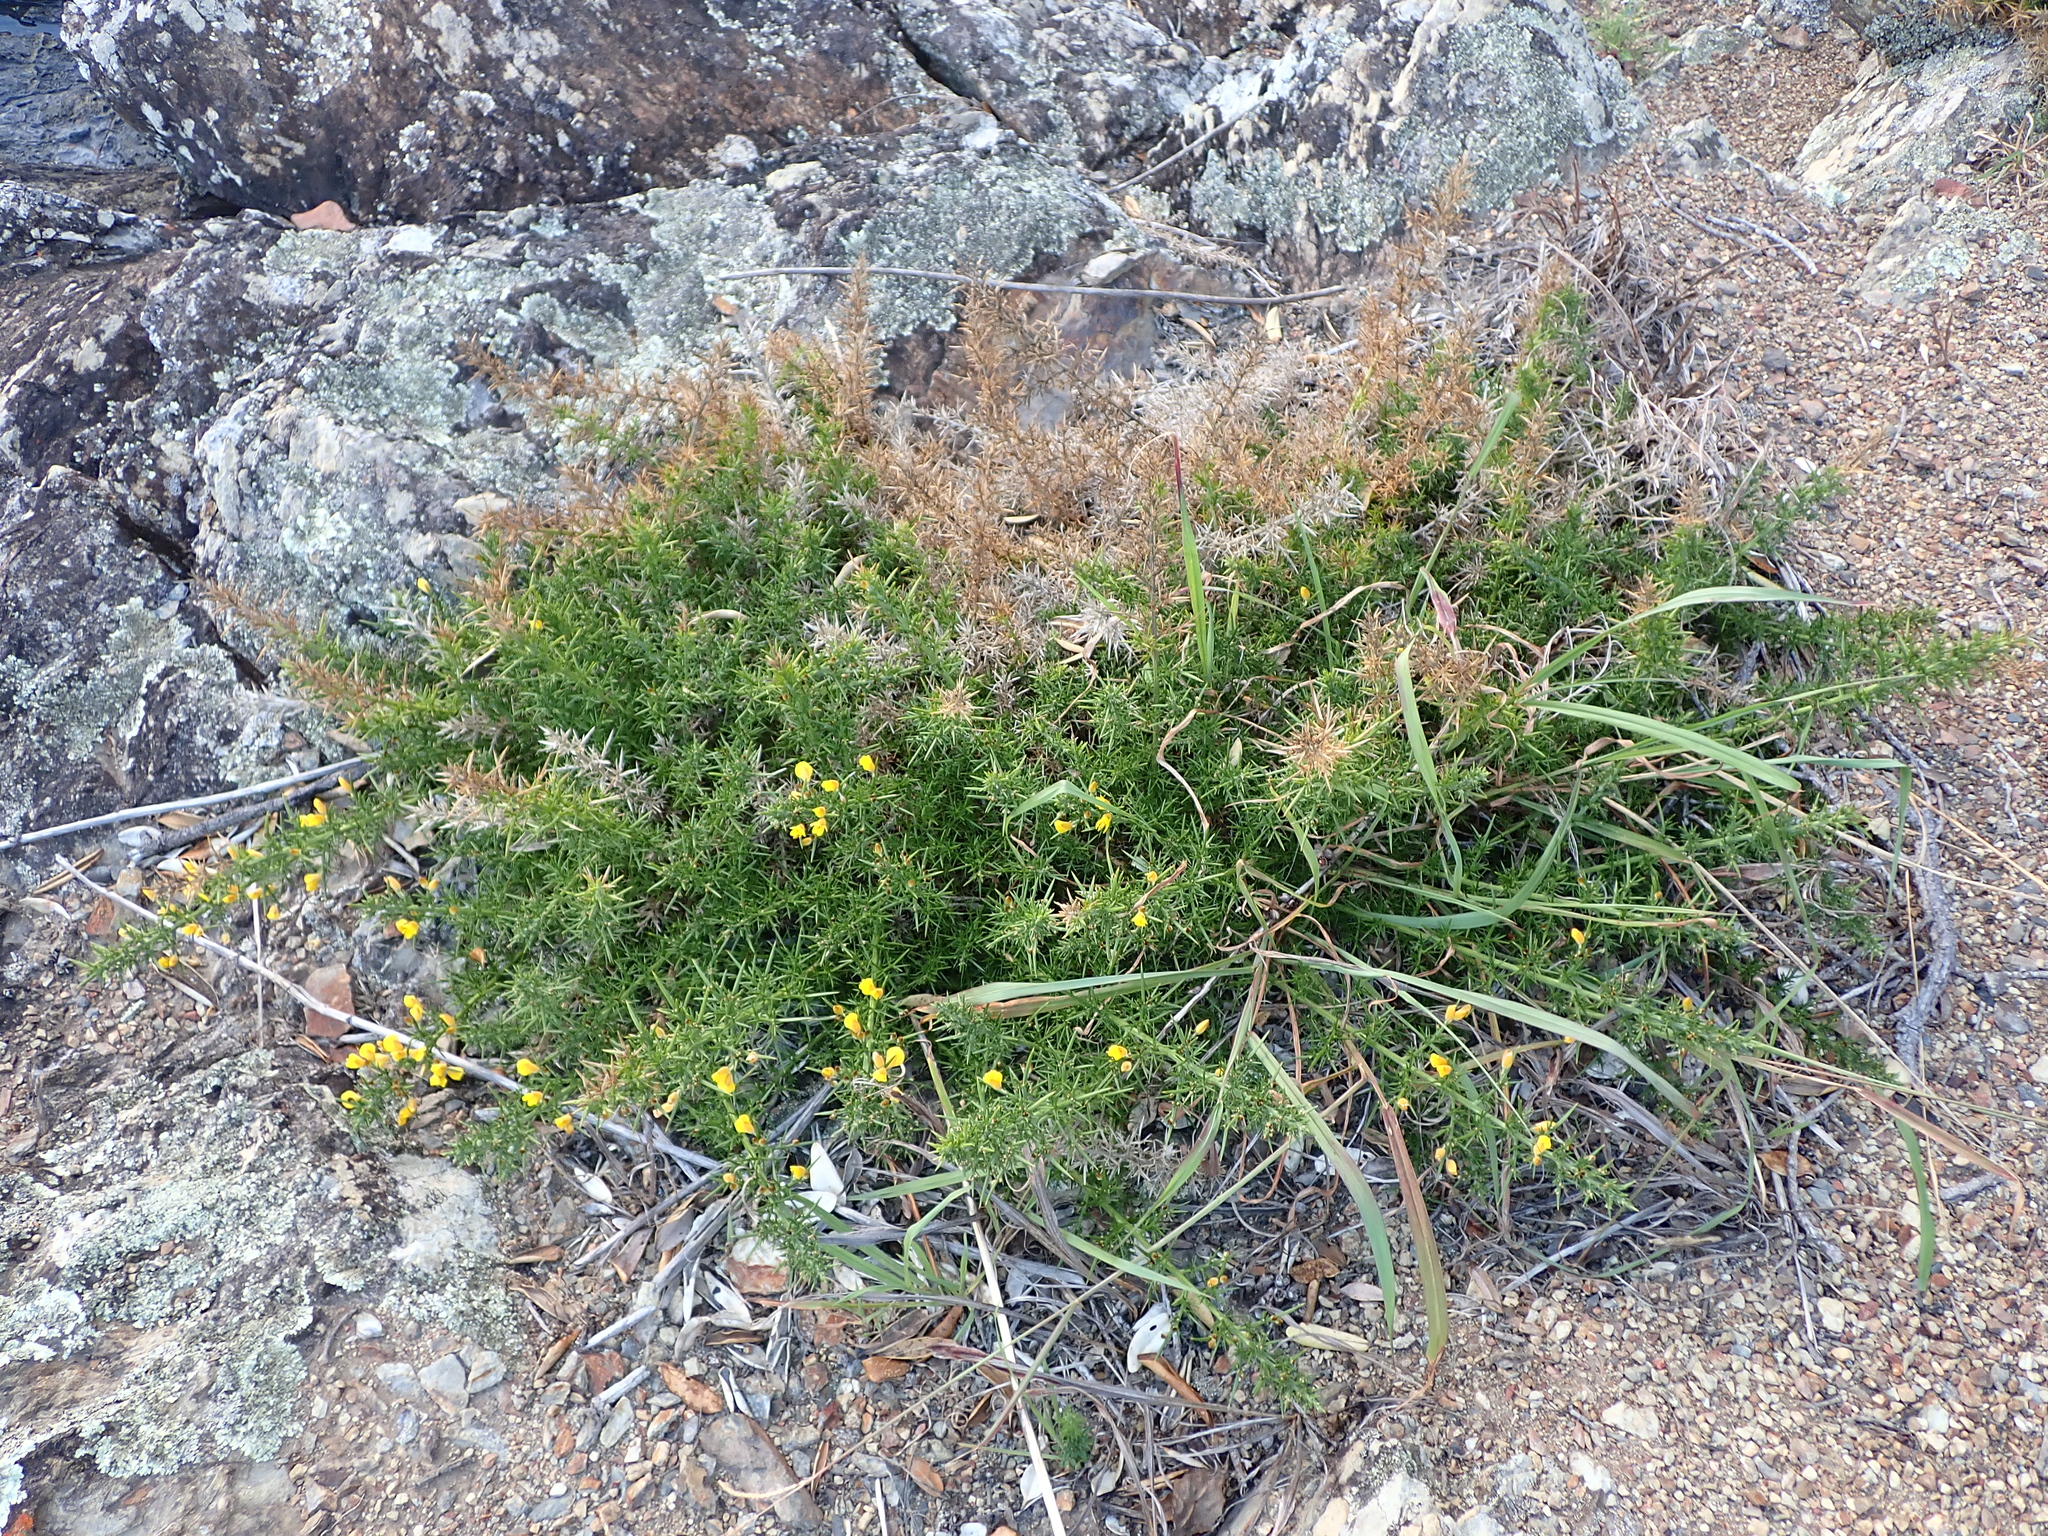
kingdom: Plantae
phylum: Tracheophyta
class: Magnoliopsida
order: Fabales
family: Fabaceae
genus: Ulex
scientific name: Ulex europaeus
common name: Common gorse
